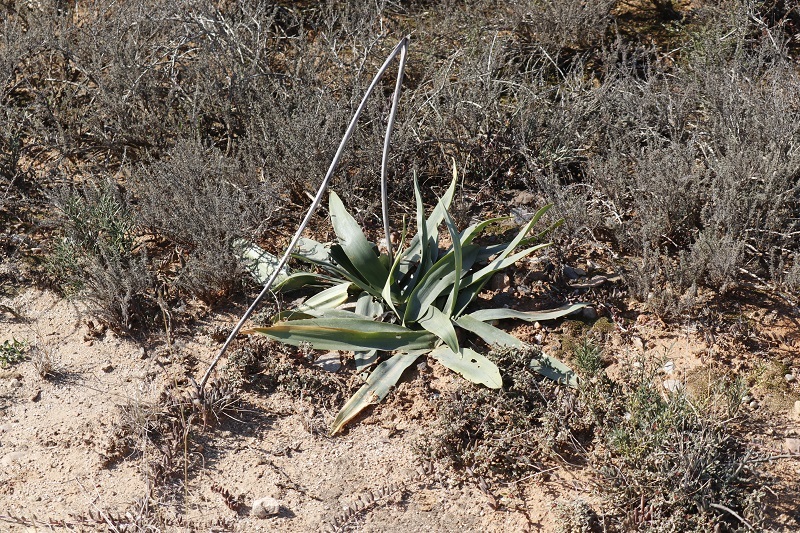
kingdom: Plantae
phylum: Tracheophyta
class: Liliopsida
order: Asparagales
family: Asparagaceae
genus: Drimia
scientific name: Drimia capensis
